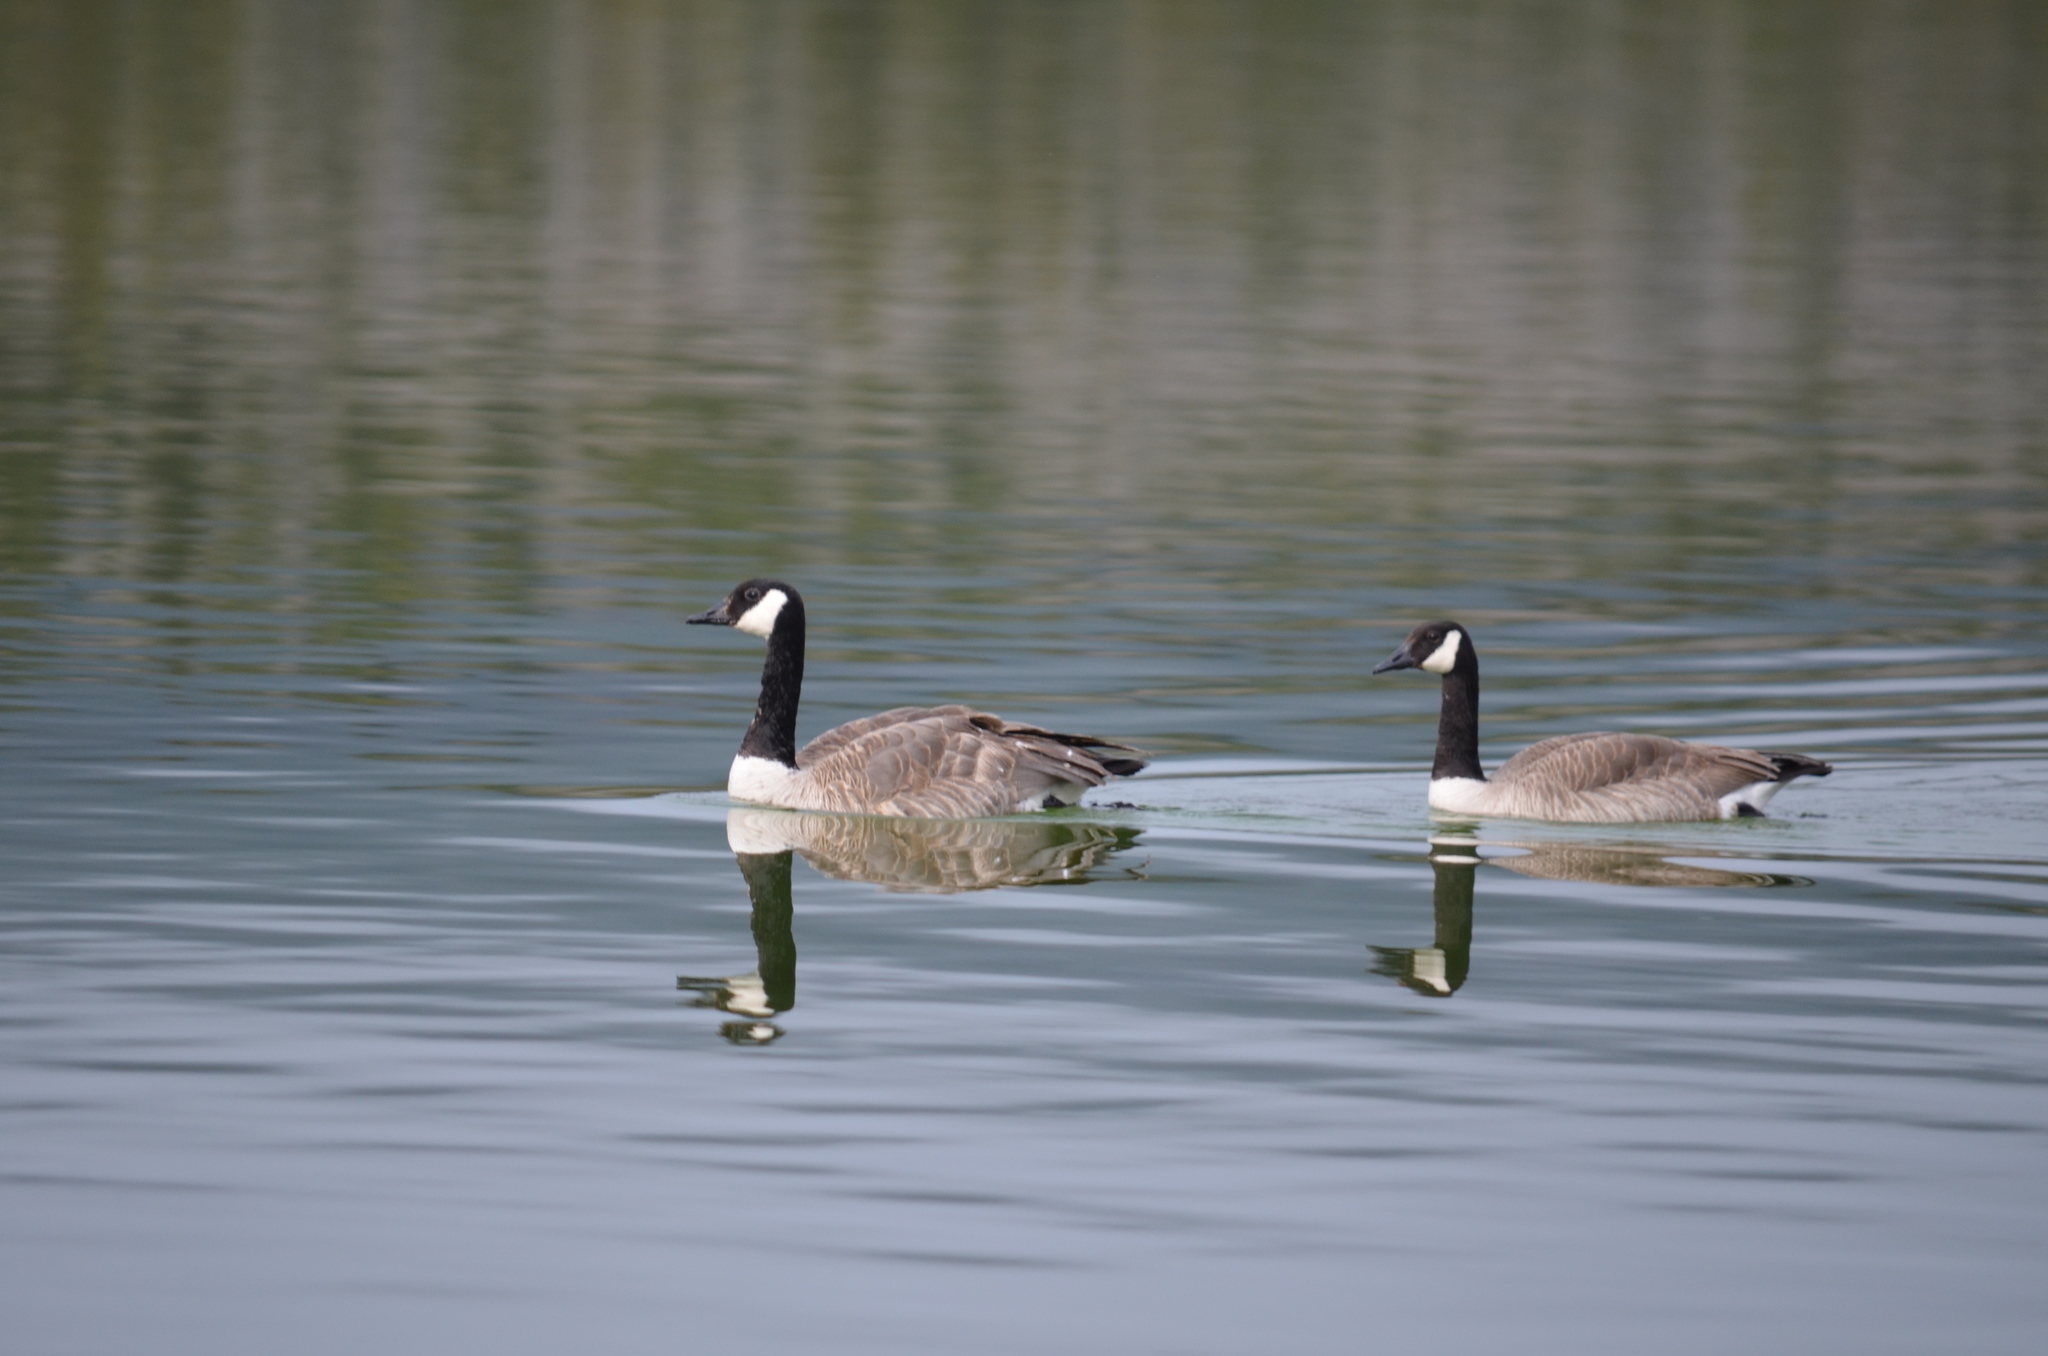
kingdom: Animalia
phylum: Chordata
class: Aves
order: Anseriformes
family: Anatidae
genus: Branta
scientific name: Branta canadensis
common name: Canada goose
